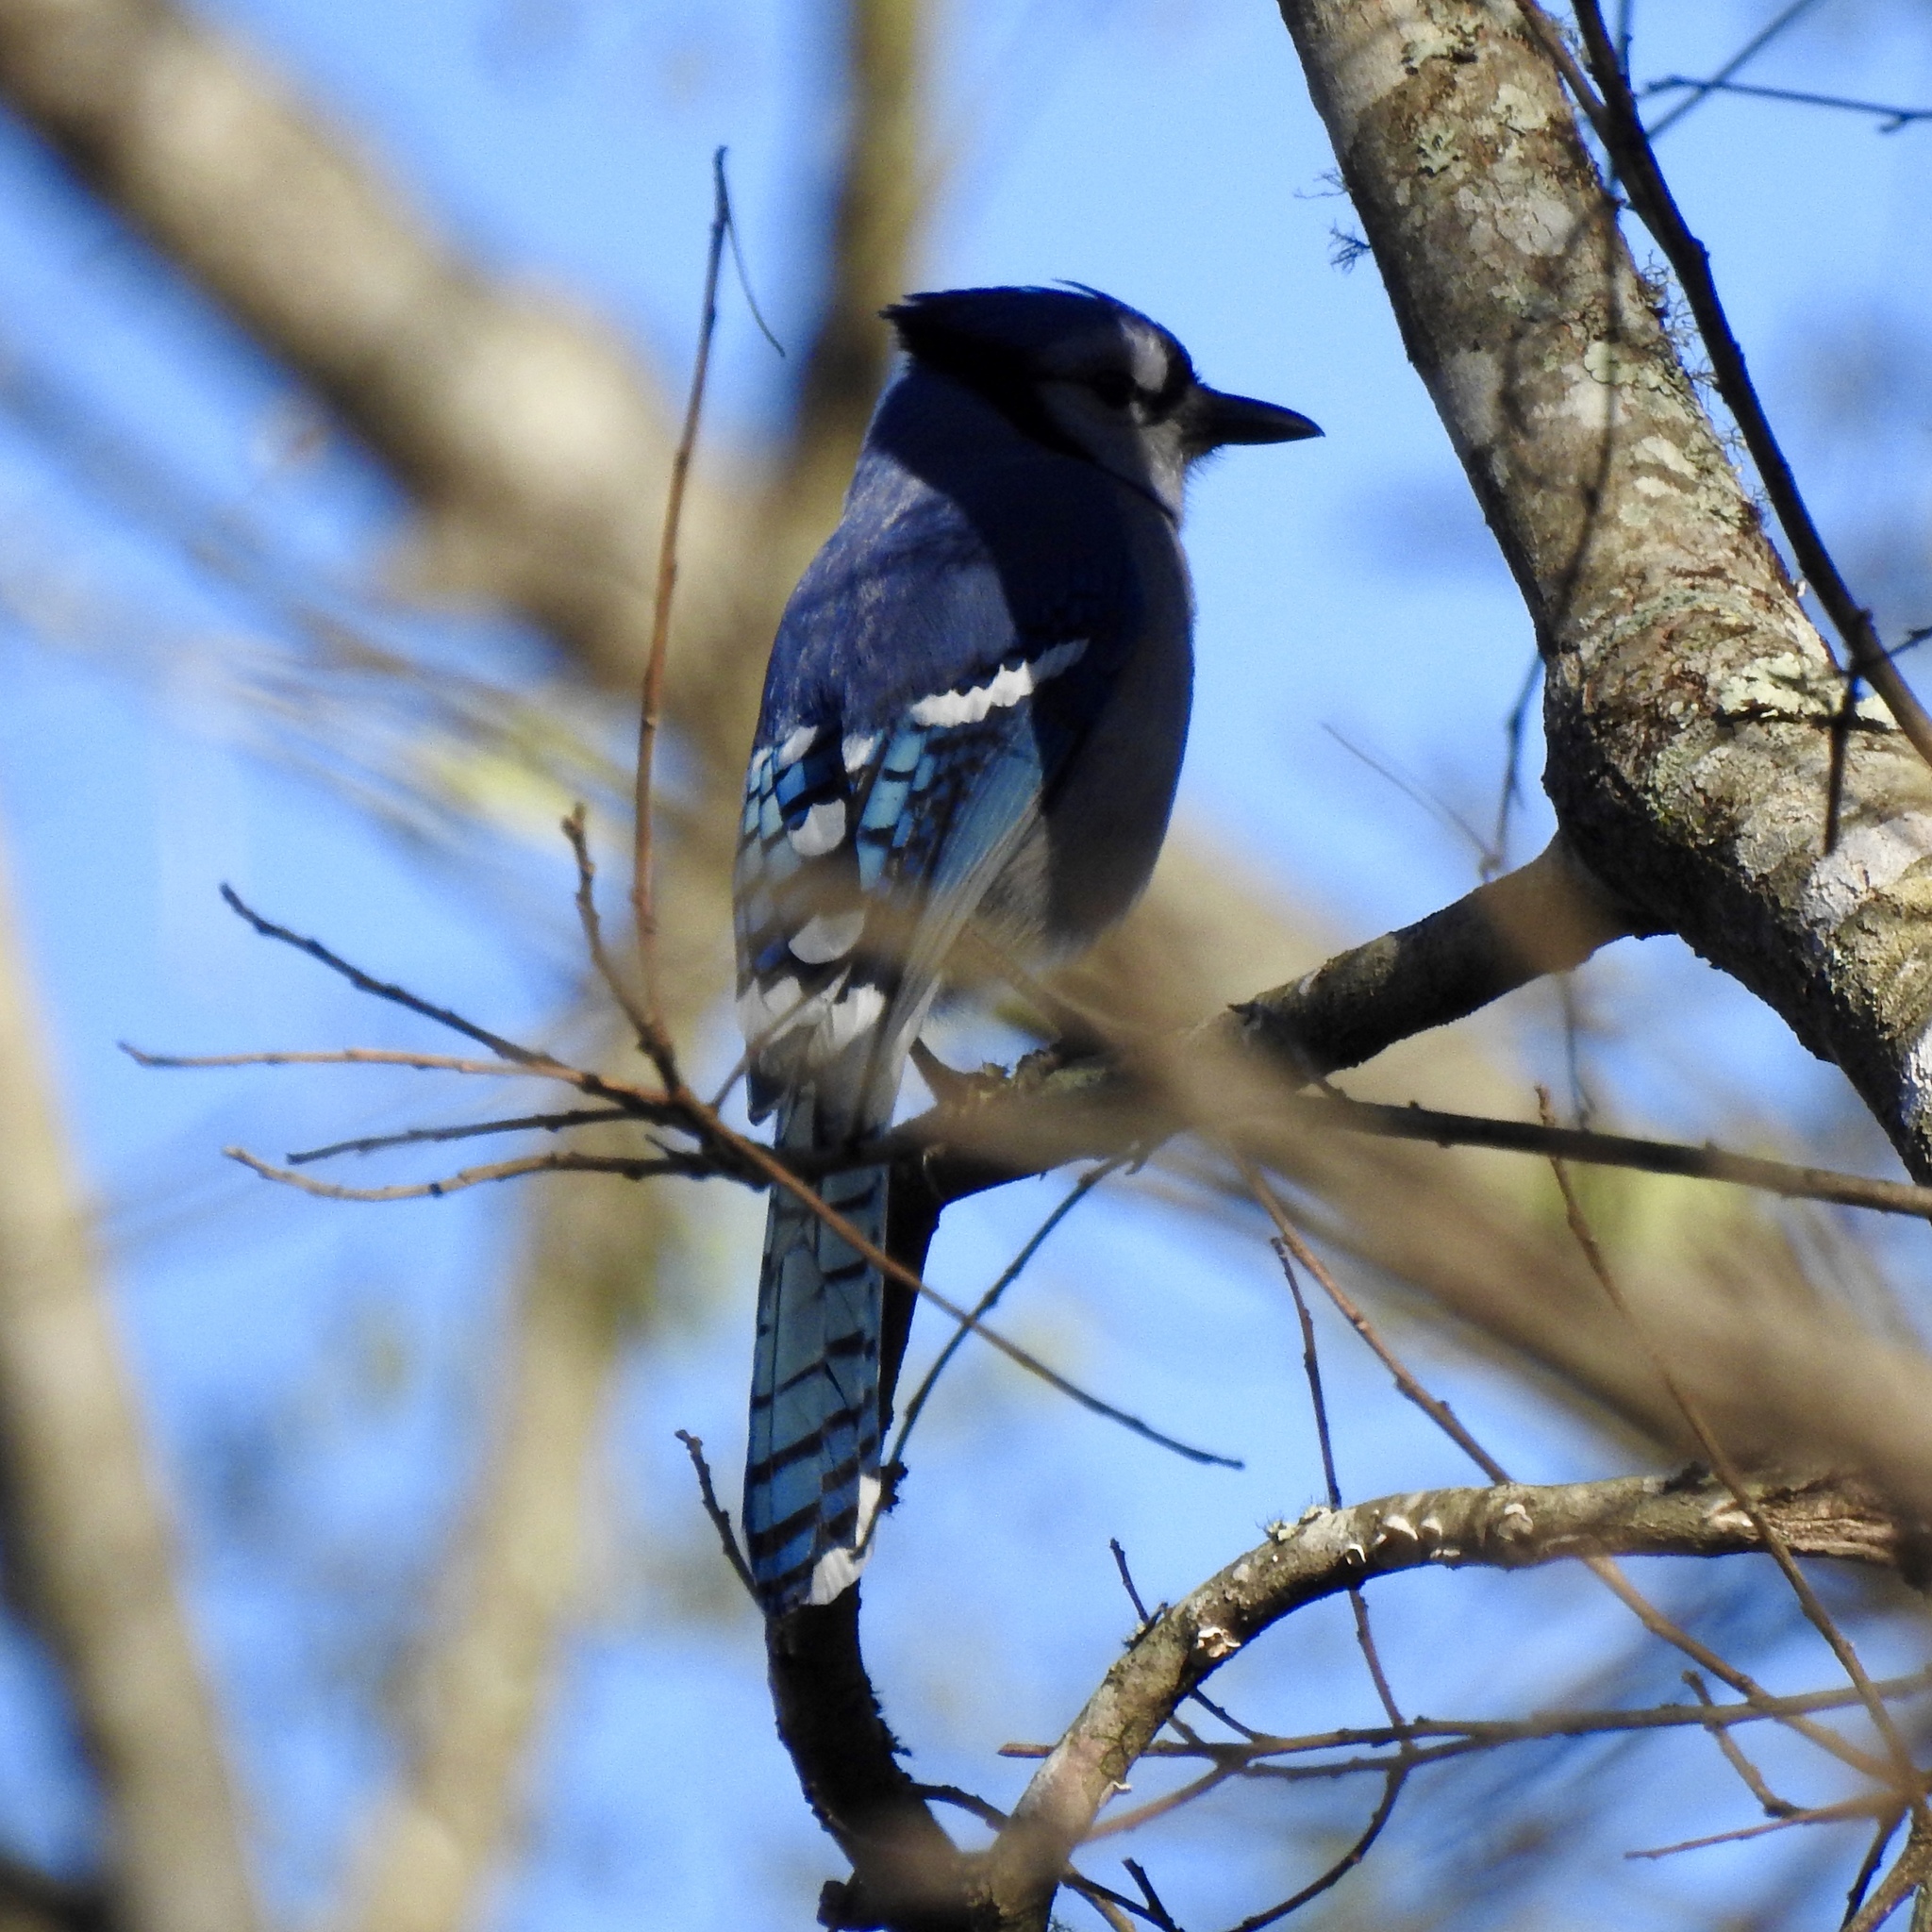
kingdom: Animalia
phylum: Chordata
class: Aves
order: Passeriformes
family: Corvidae
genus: Cyanocitta
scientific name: Cyanocitta cristata
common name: Blue jay
